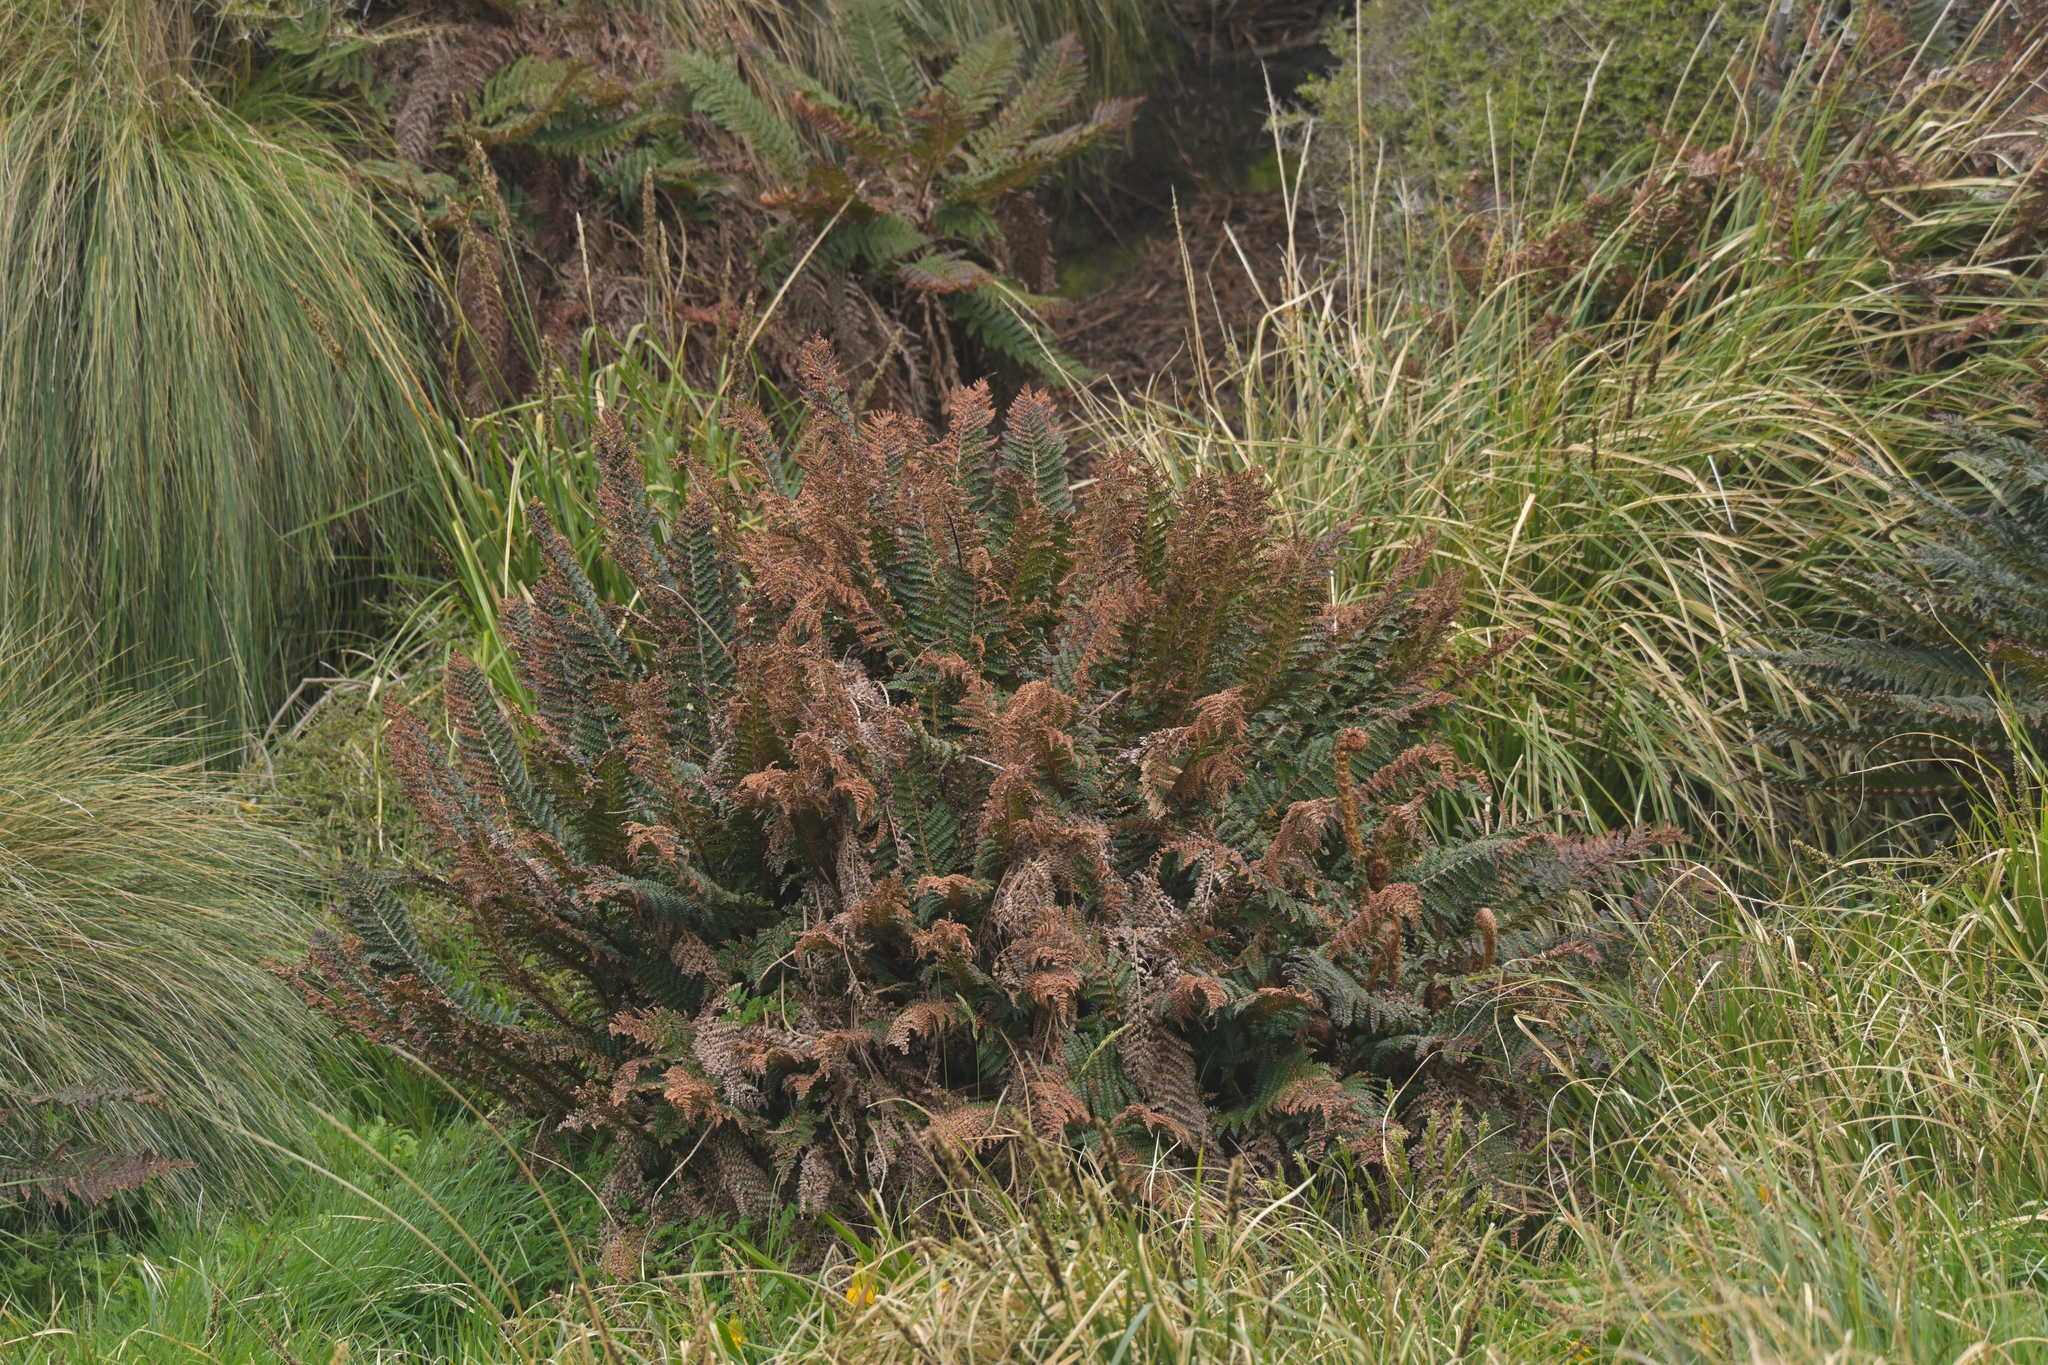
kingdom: Plantae
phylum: Tracheophyta
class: Polypodiopsida
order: Polypodiales
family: Dryopteridaceae
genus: Polystichum
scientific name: Polystichum vestitum
